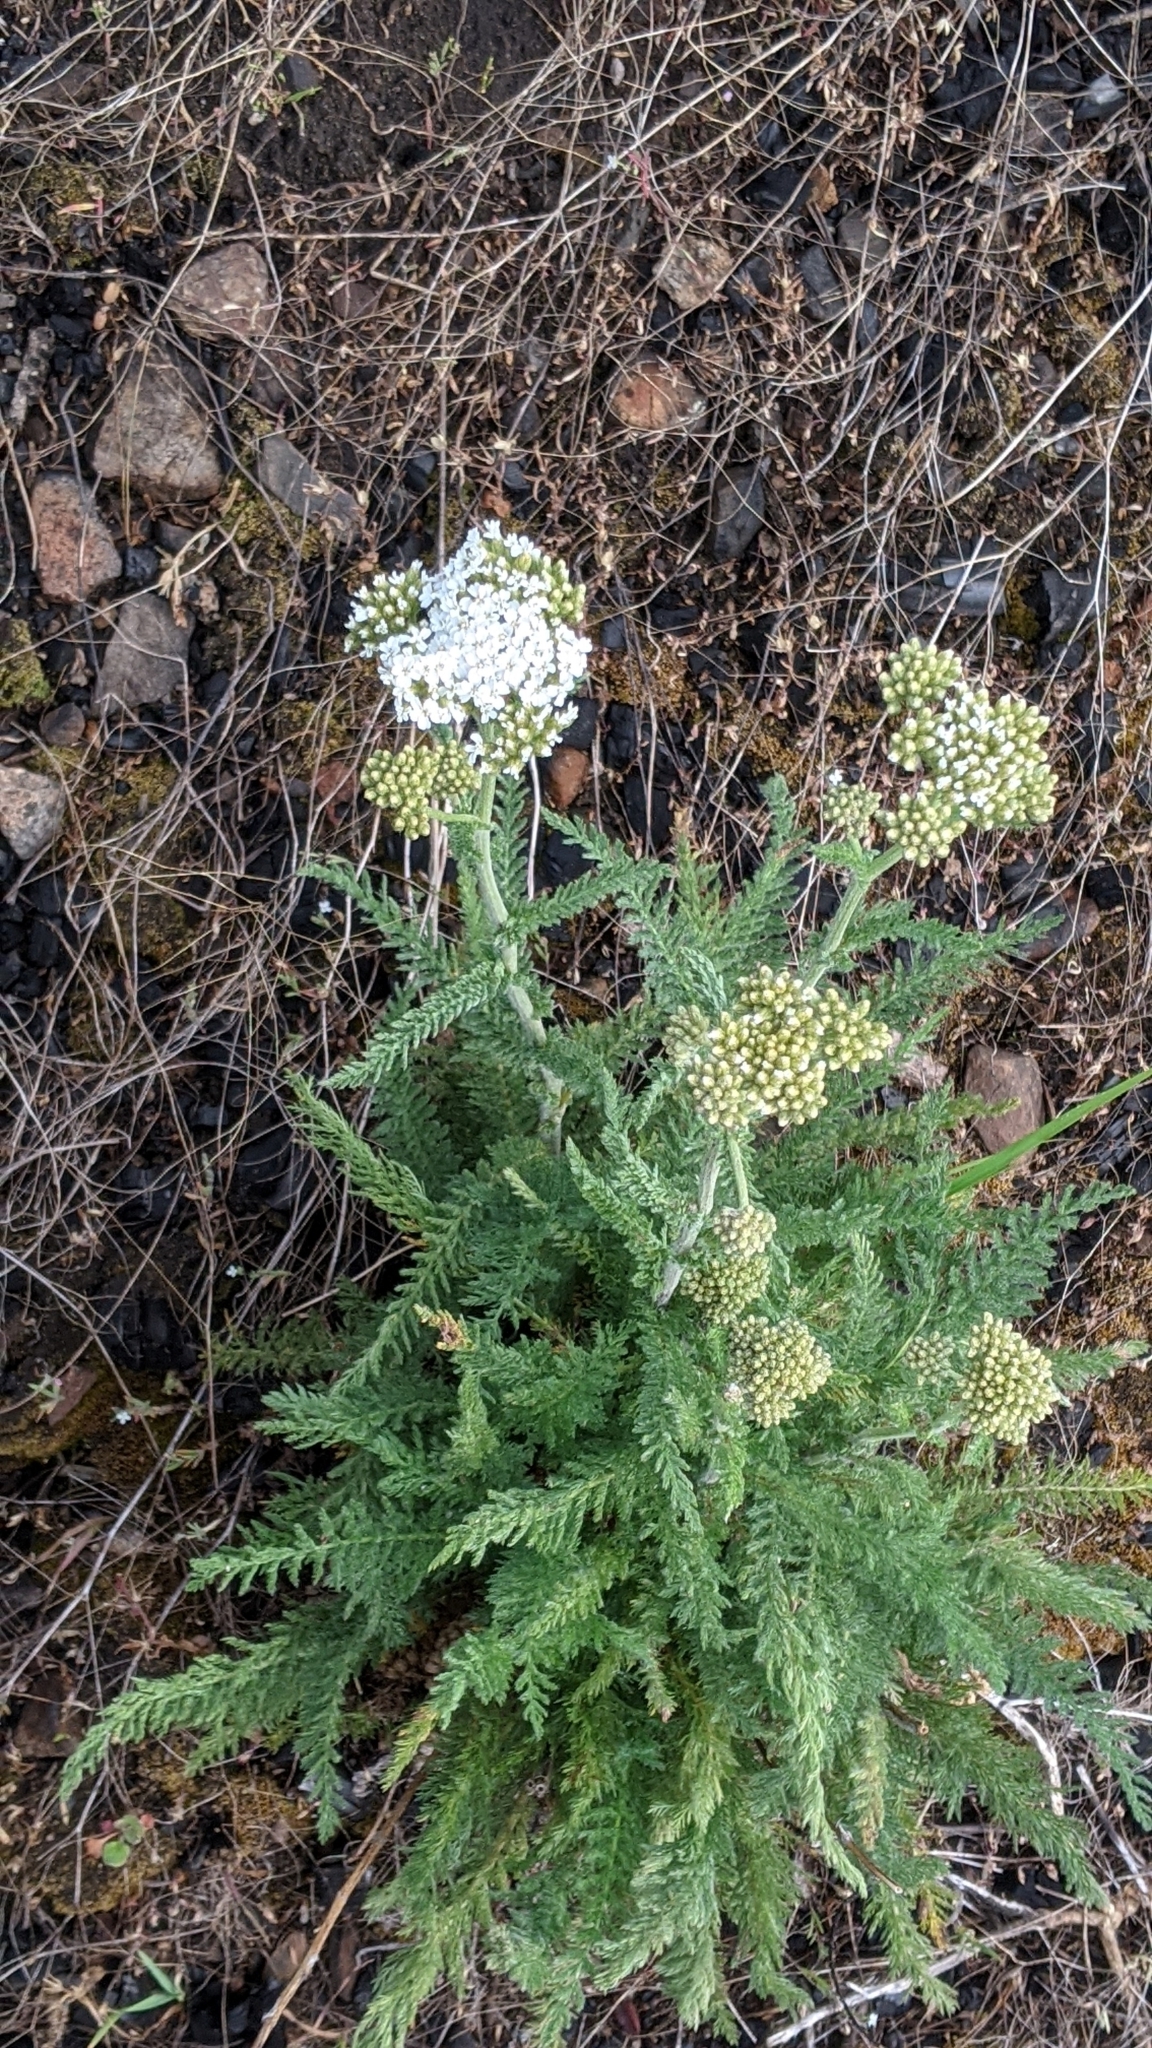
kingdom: Plantae
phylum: Tracheophyta
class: Magnoliopsida
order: Asterales
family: Asteraceae
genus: Achillea
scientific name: Achillea millefolium
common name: Yarrow
